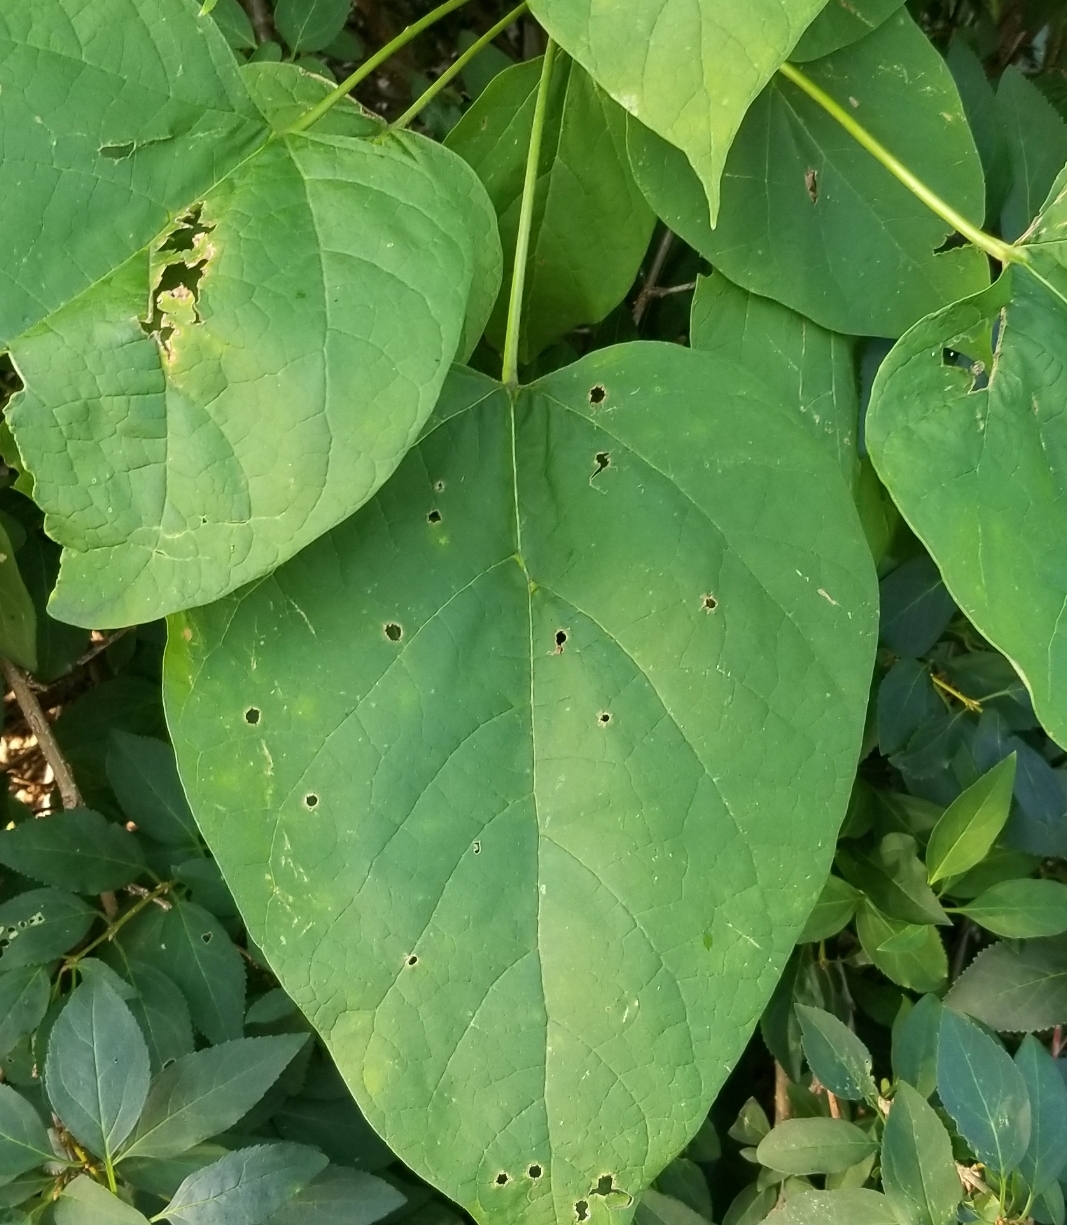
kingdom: Plantae
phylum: Tracheophyta
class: Magnoliopsida
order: Lamiales
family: Bignoniaceae
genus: Catalpa
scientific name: Catalpa speciosa
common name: Northern catalpa
